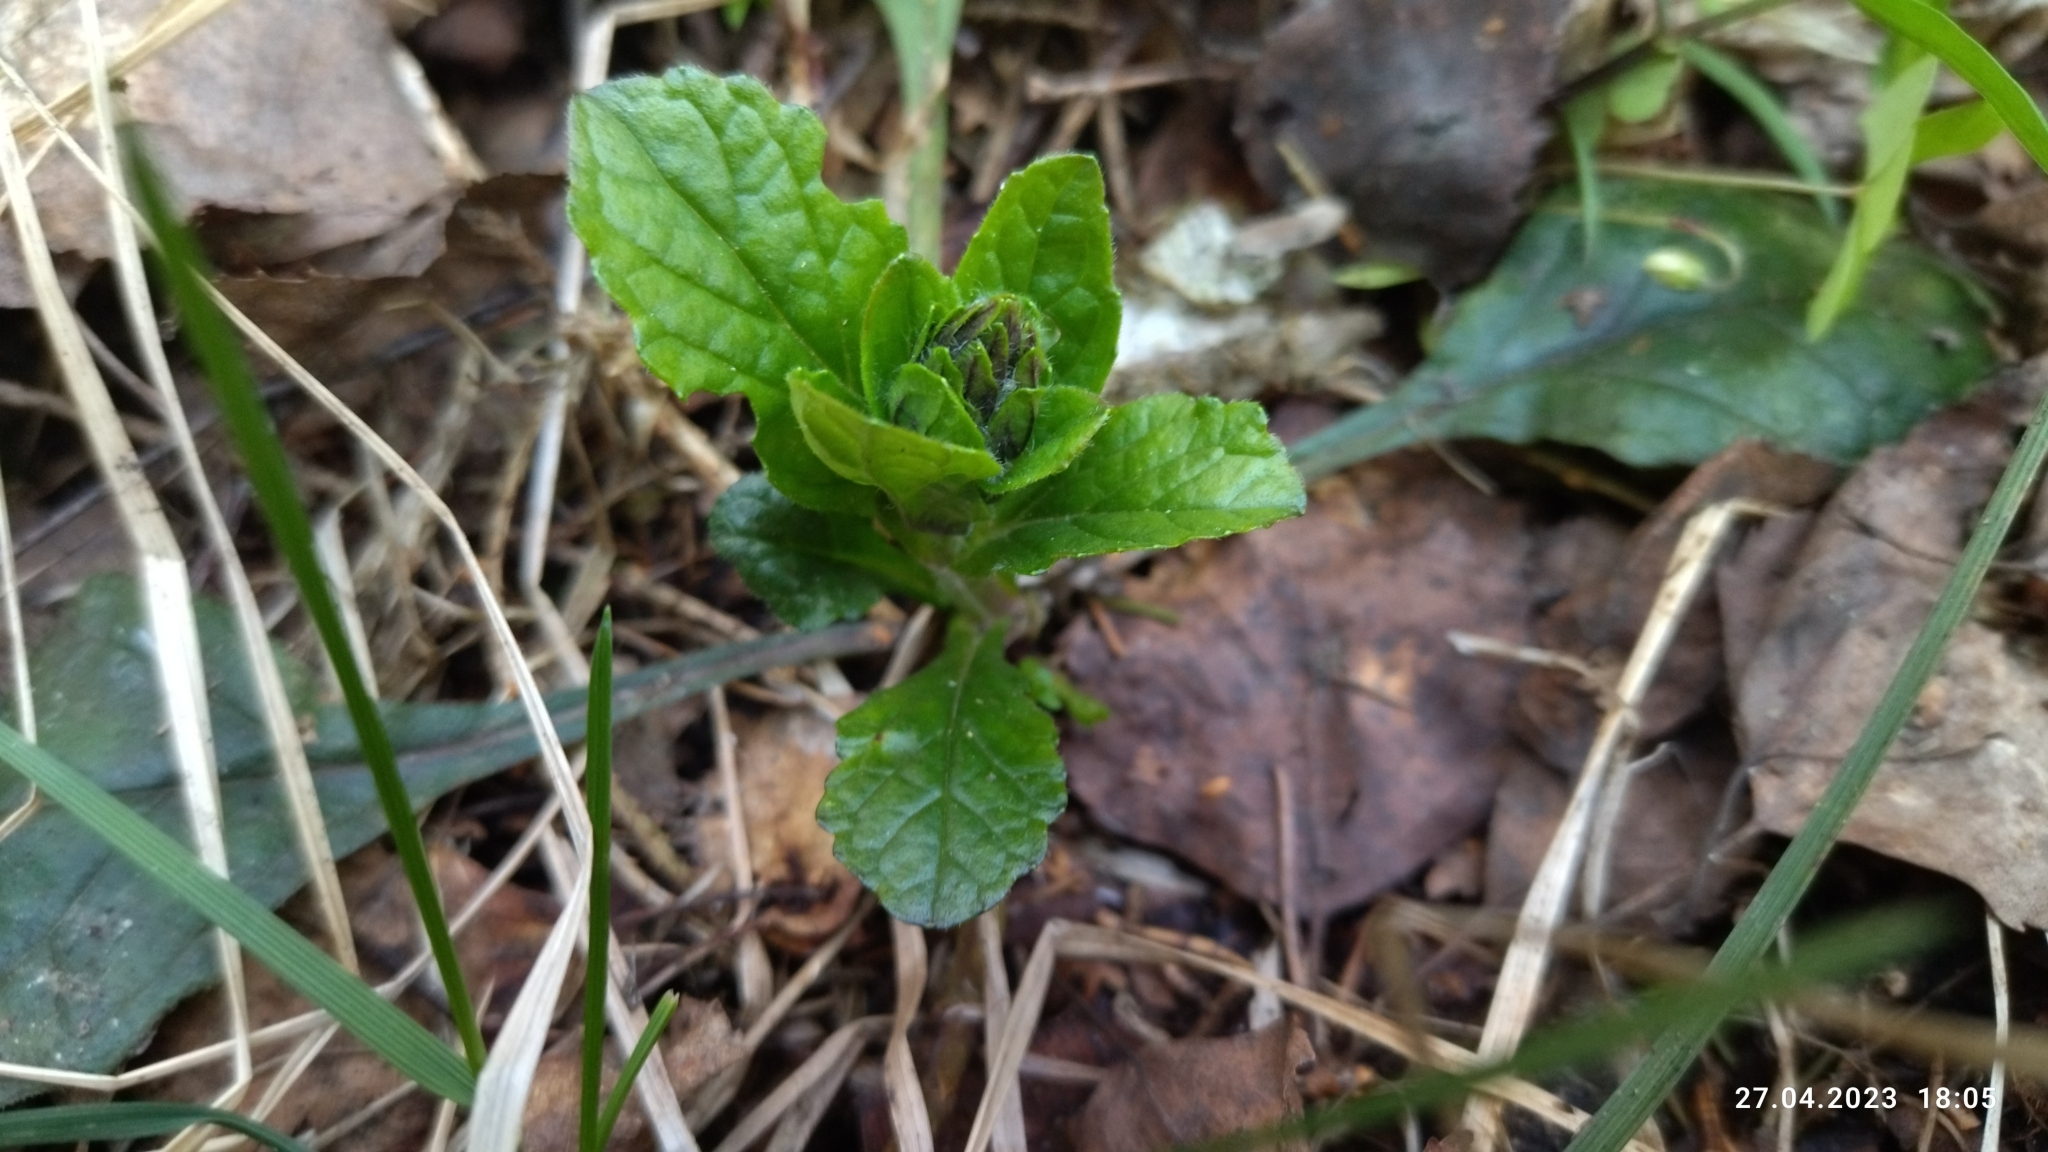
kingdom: Plantae
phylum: Tracheophyta
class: Magnoliopsida
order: Lamiales
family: Lamiaceae
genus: Ajuga
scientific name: Ajuga reptans
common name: Bugle
